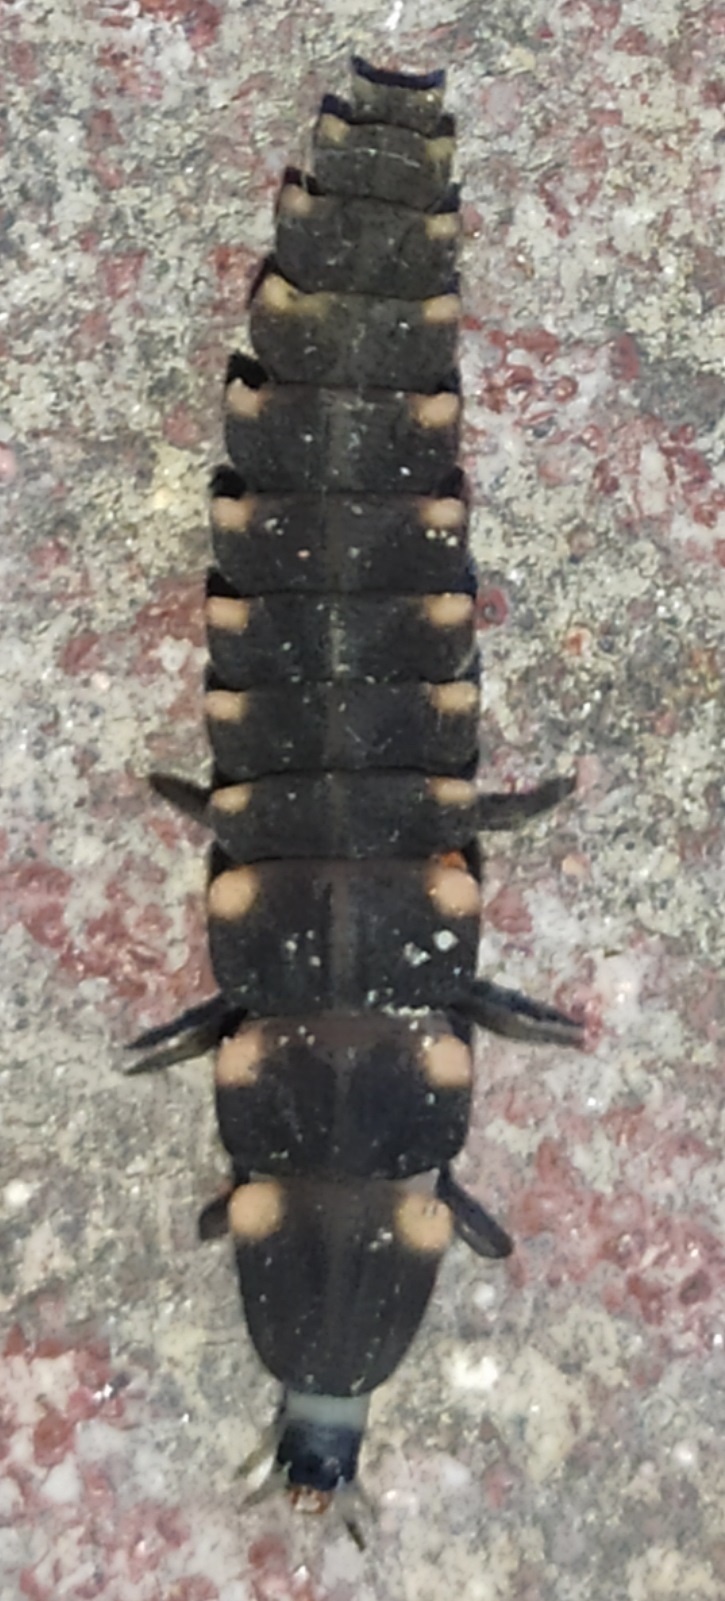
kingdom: Animalia
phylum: Arthropoda
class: Insecta
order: Coleoptera
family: Lampyridae
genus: Lampyris
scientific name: Lampyris noctiluca
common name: Glow-worm
